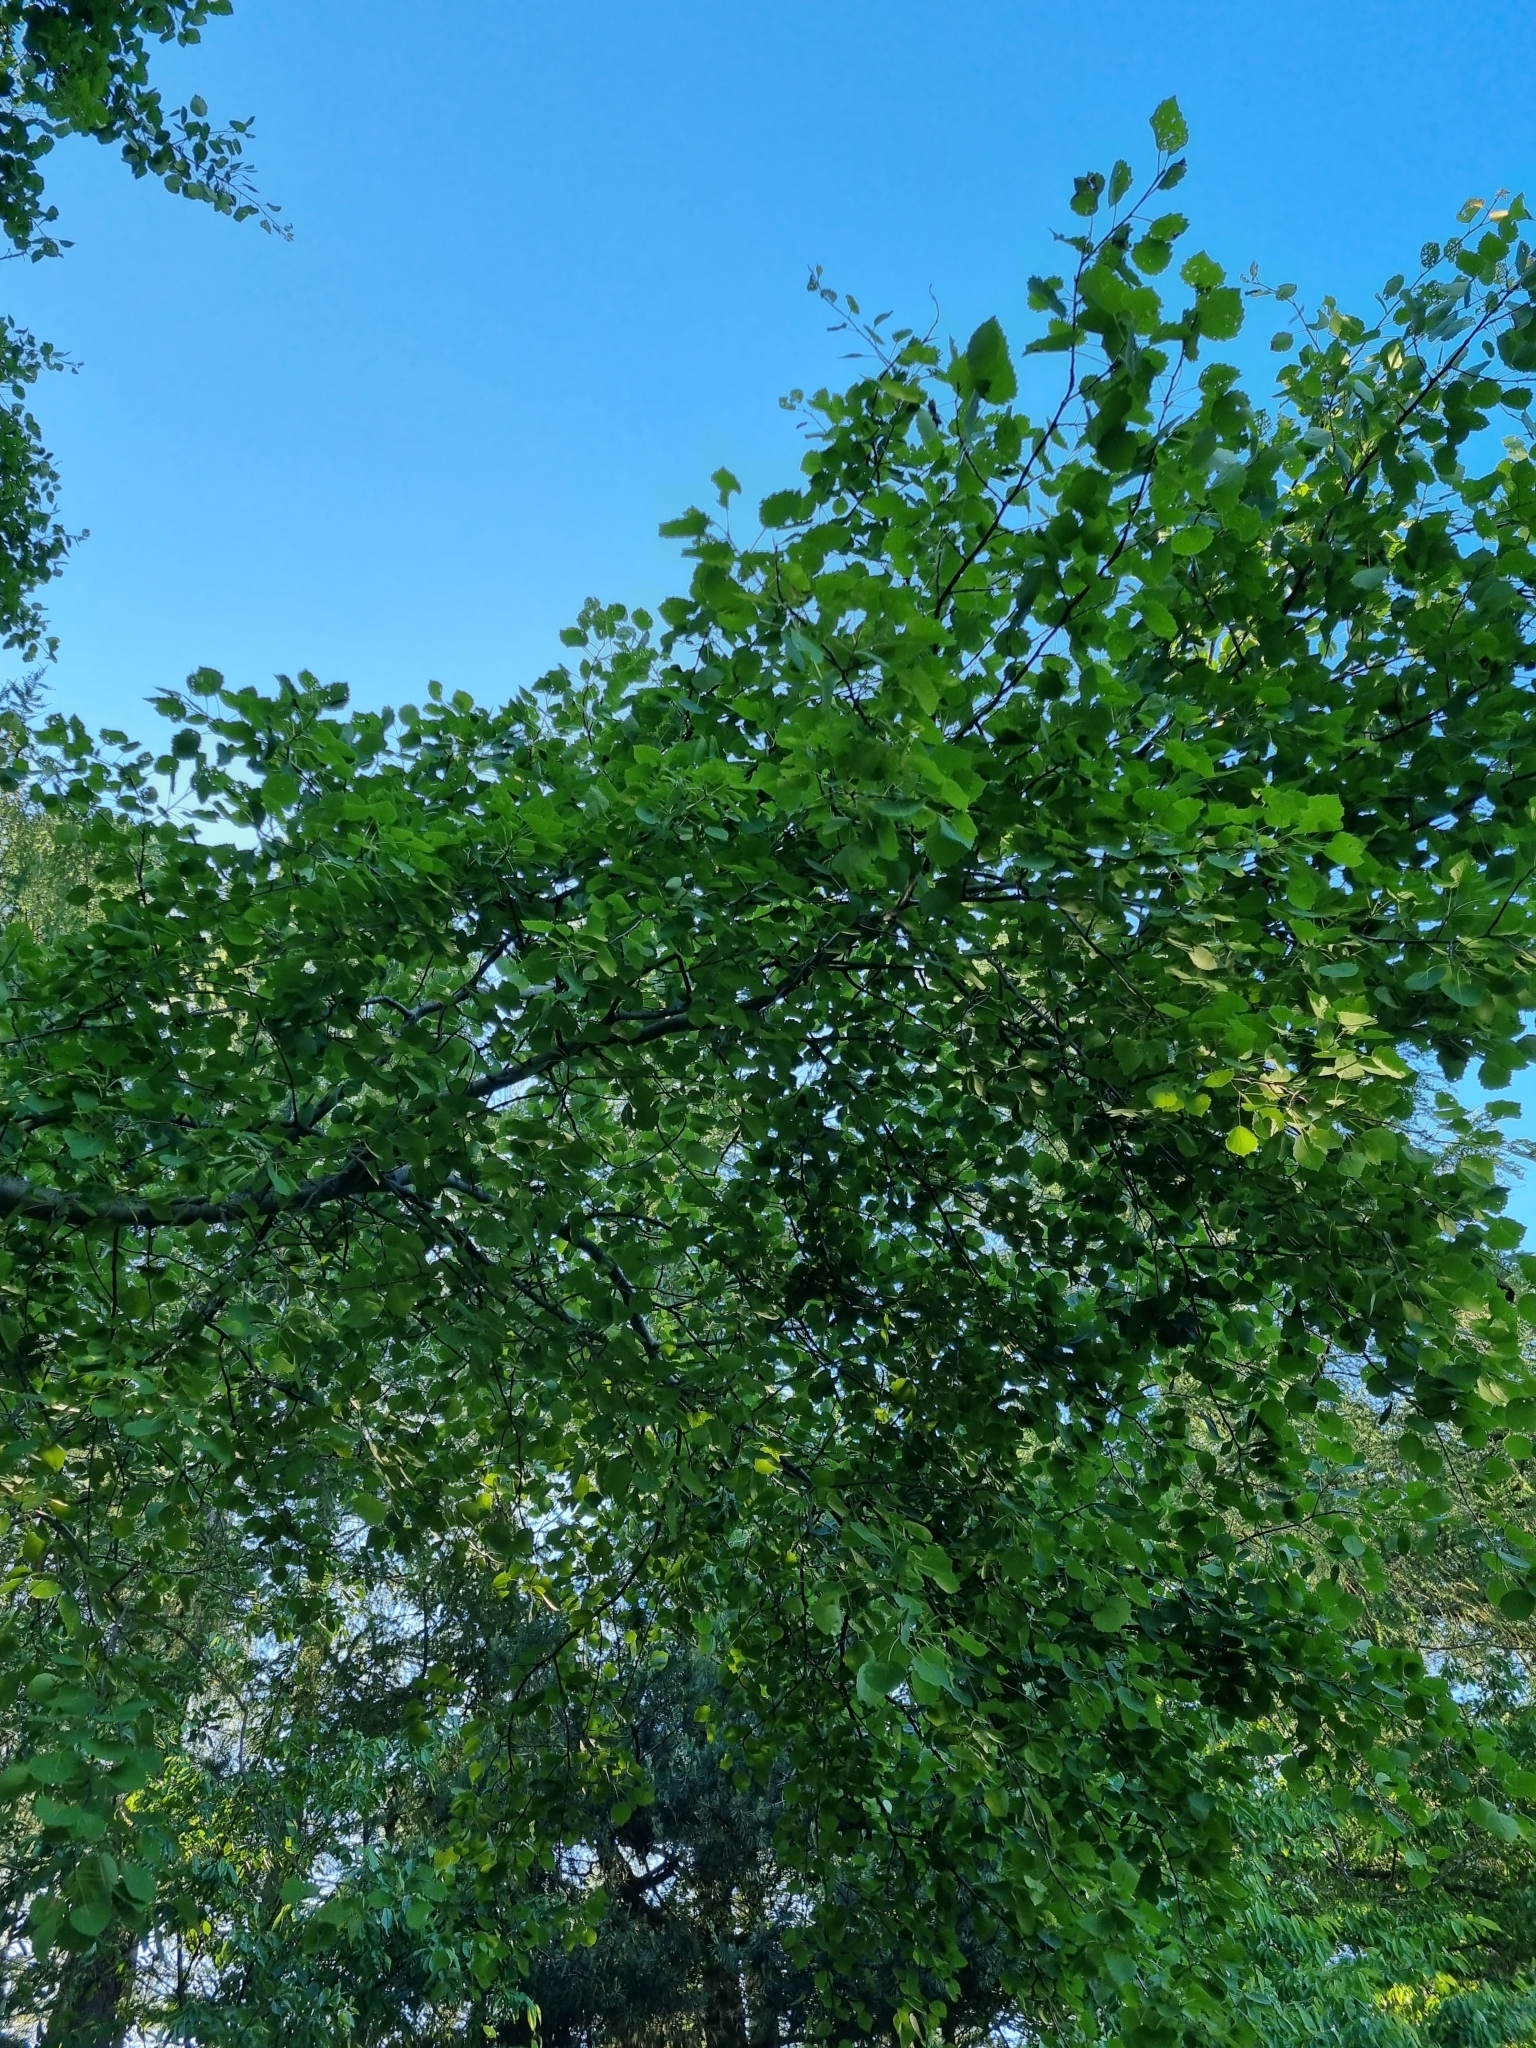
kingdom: Plantae
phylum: Tracheophyta
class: Magnoliopsida
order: Malpighiales
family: Salicaceae
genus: Populus
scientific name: Populus tremula
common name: European aspen
